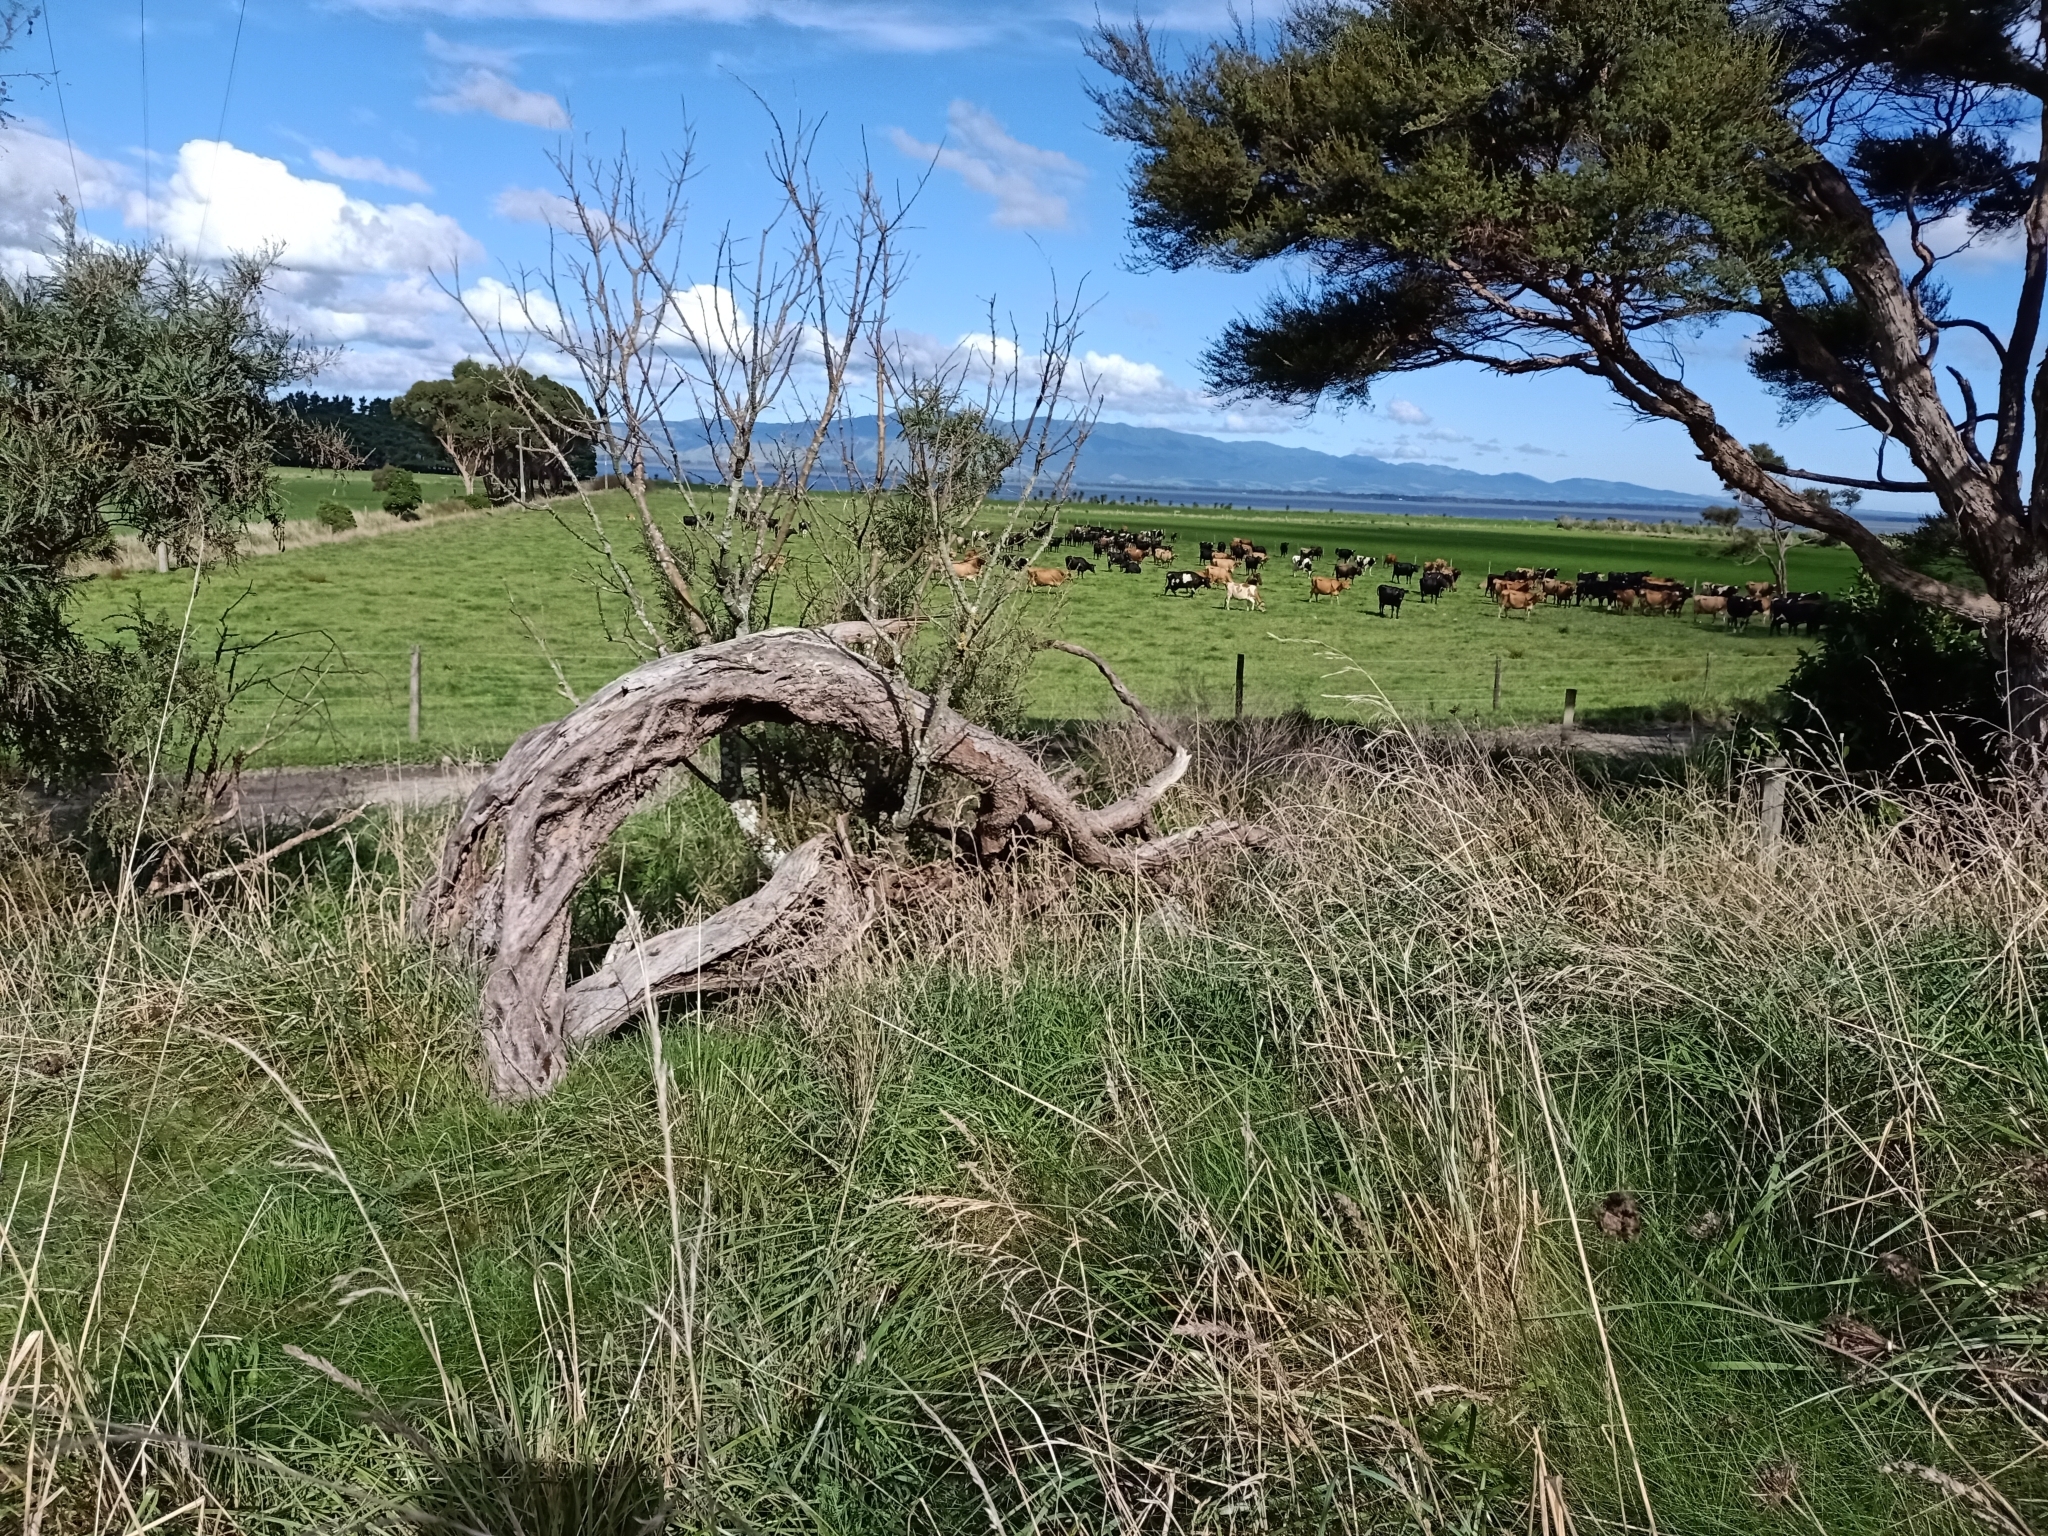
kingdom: Plantae
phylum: Tracheophyta
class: Liliopsida
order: Poales
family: Poaceae
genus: Lolium
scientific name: Lolium arundinaceum
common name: Reed fescue
